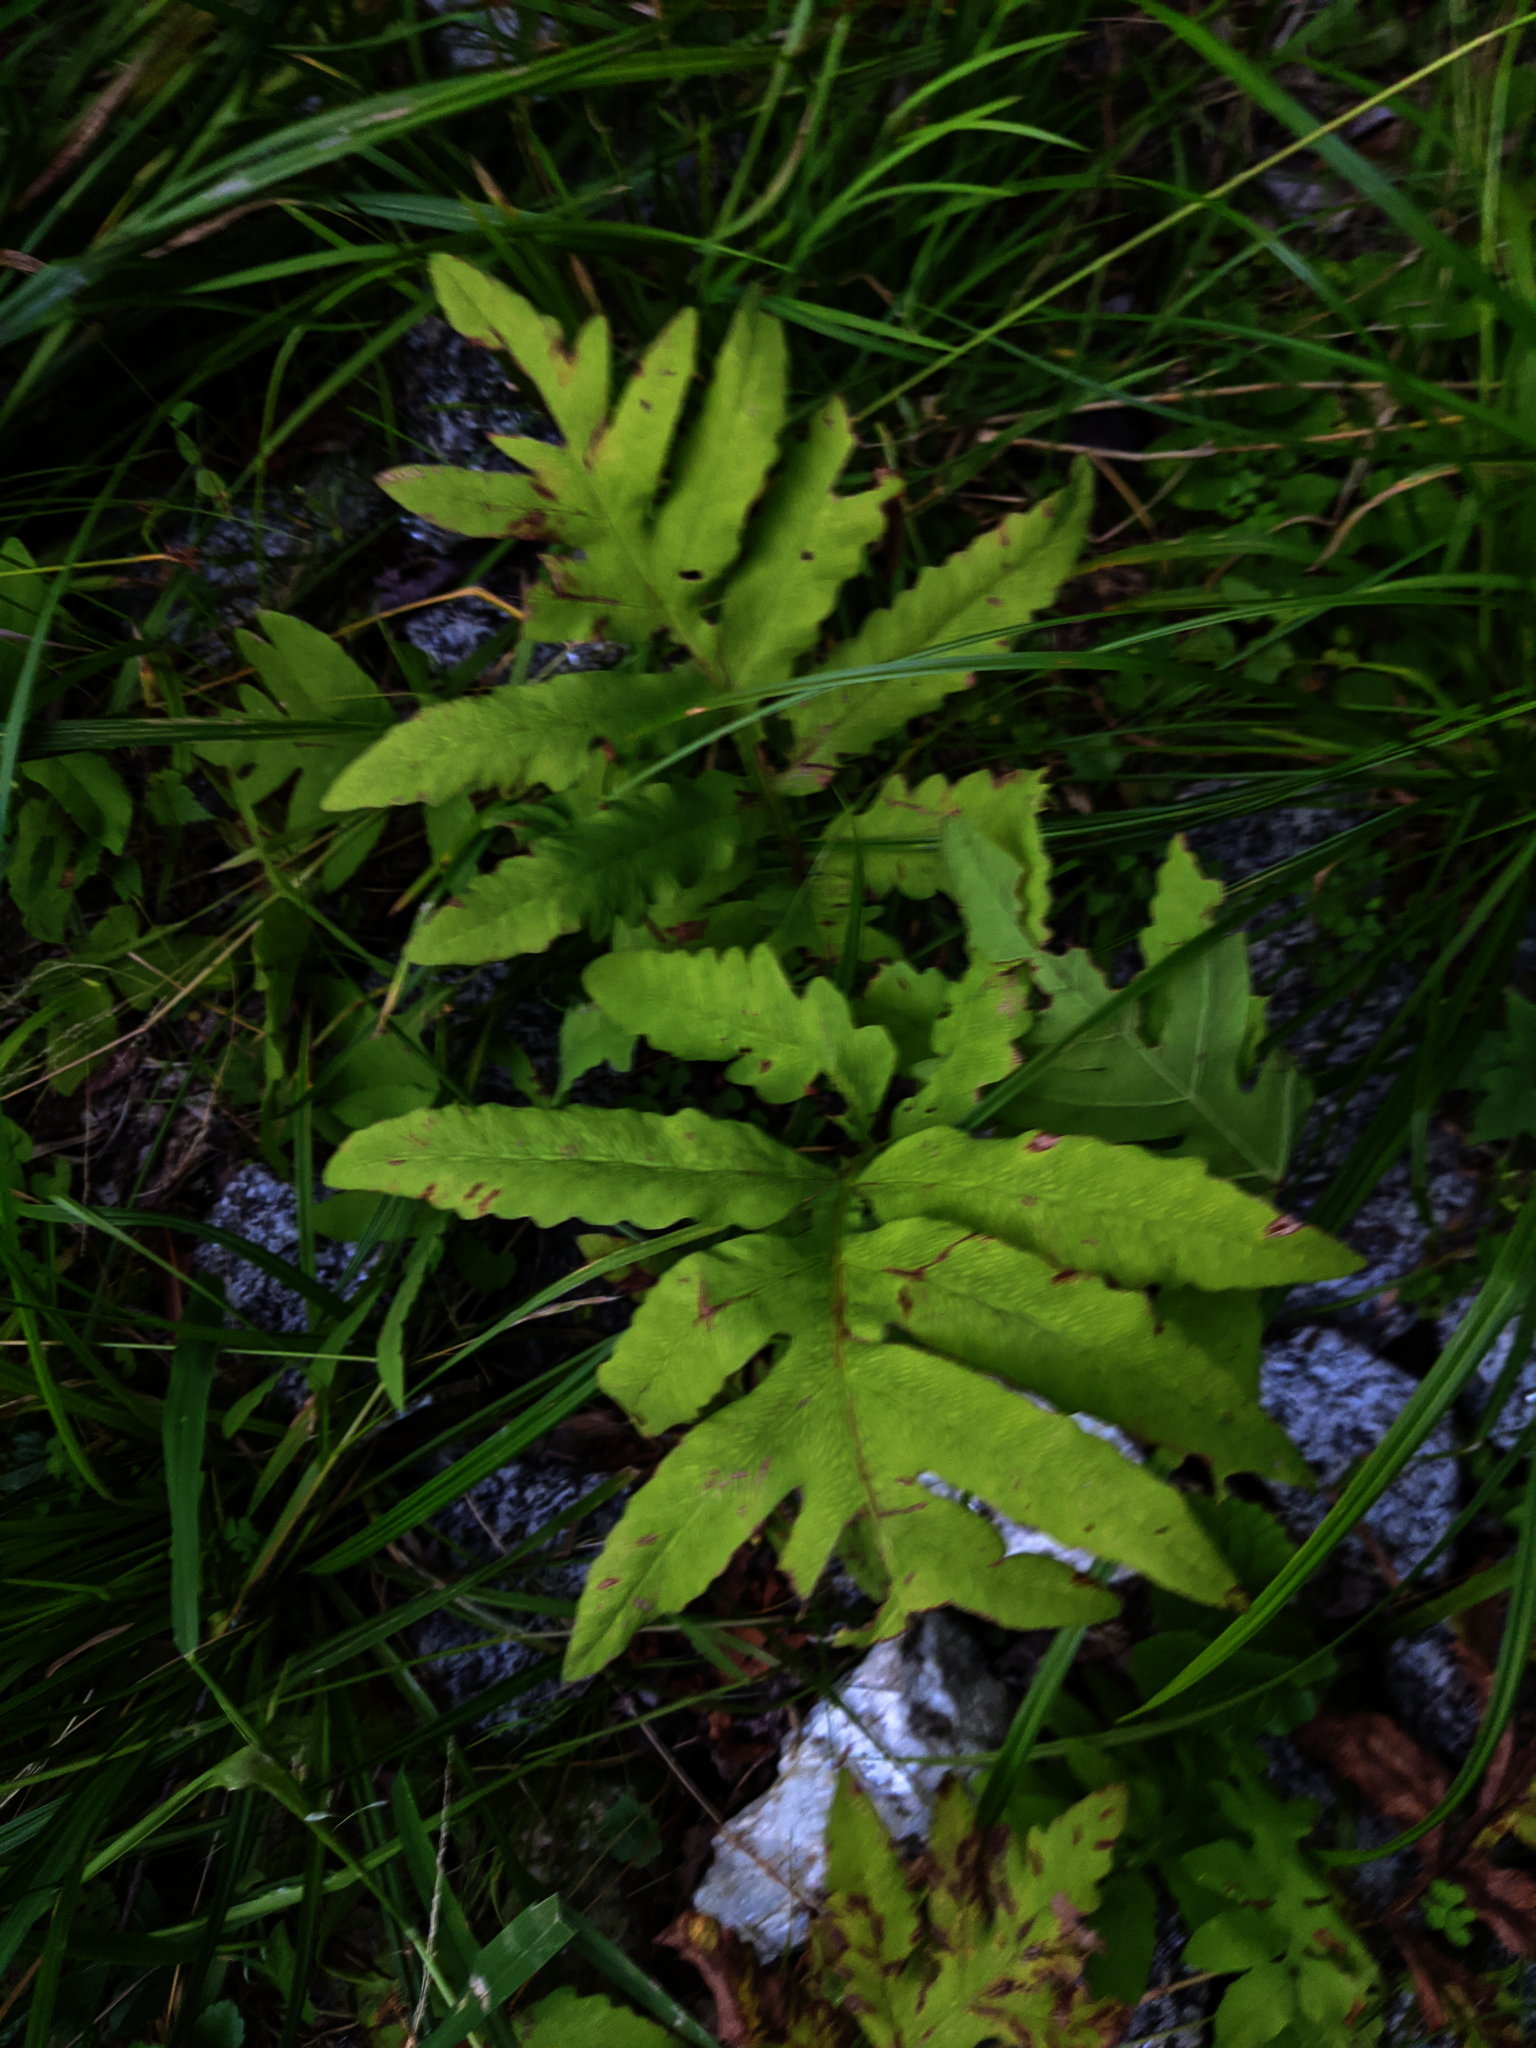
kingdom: Plantae
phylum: Tracheophyta
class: Polypodiopsida
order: Polypodiales
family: Onocleaceae
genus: Onoclea
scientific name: Onoclea sensibilis
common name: Sensitive fern
